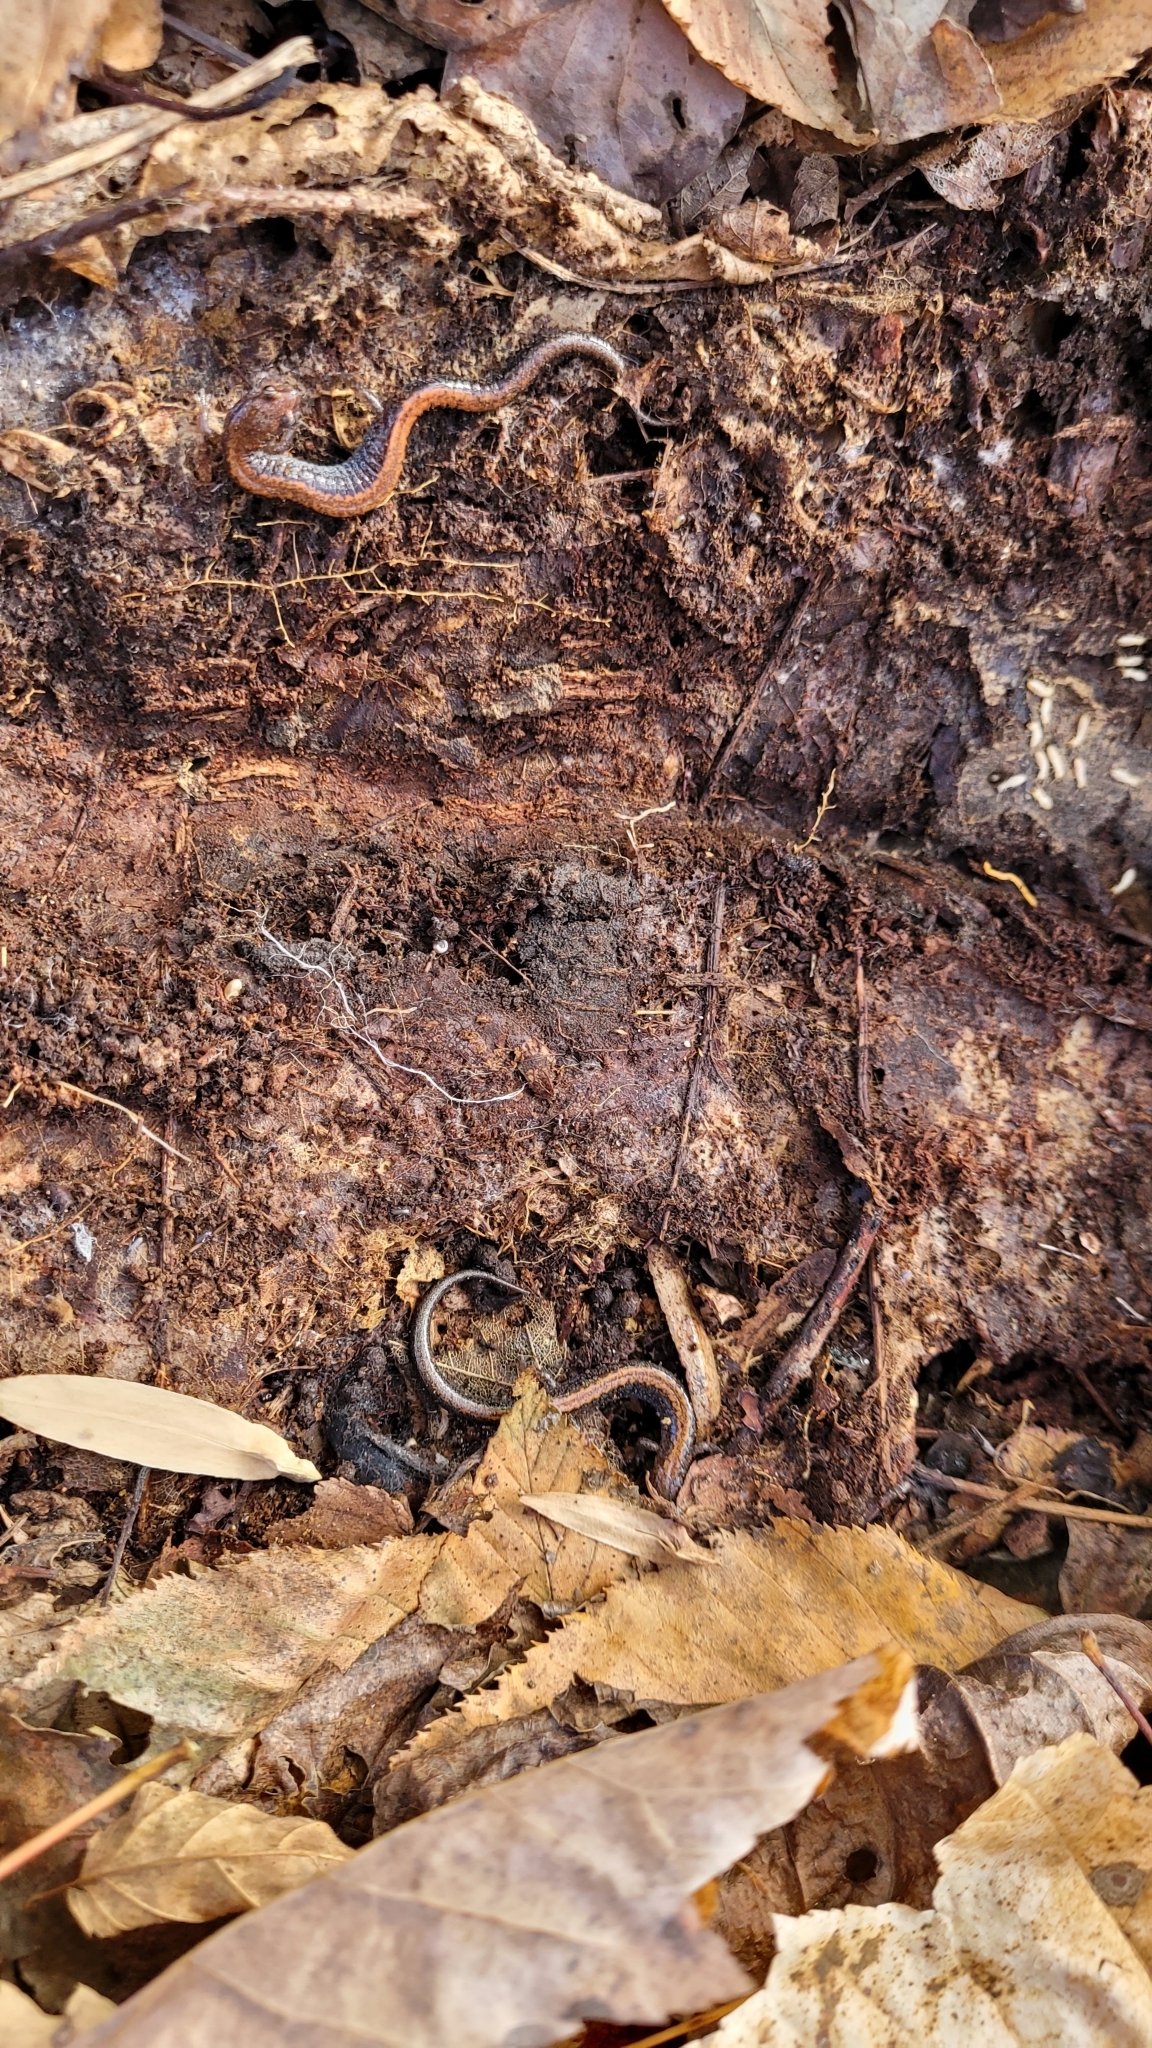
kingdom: Animalia
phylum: Chordata
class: Amphibia
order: Caudata
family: Plethodontidae
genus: Plethodon
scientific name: Plethodon cinereus
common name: Redback salamander
